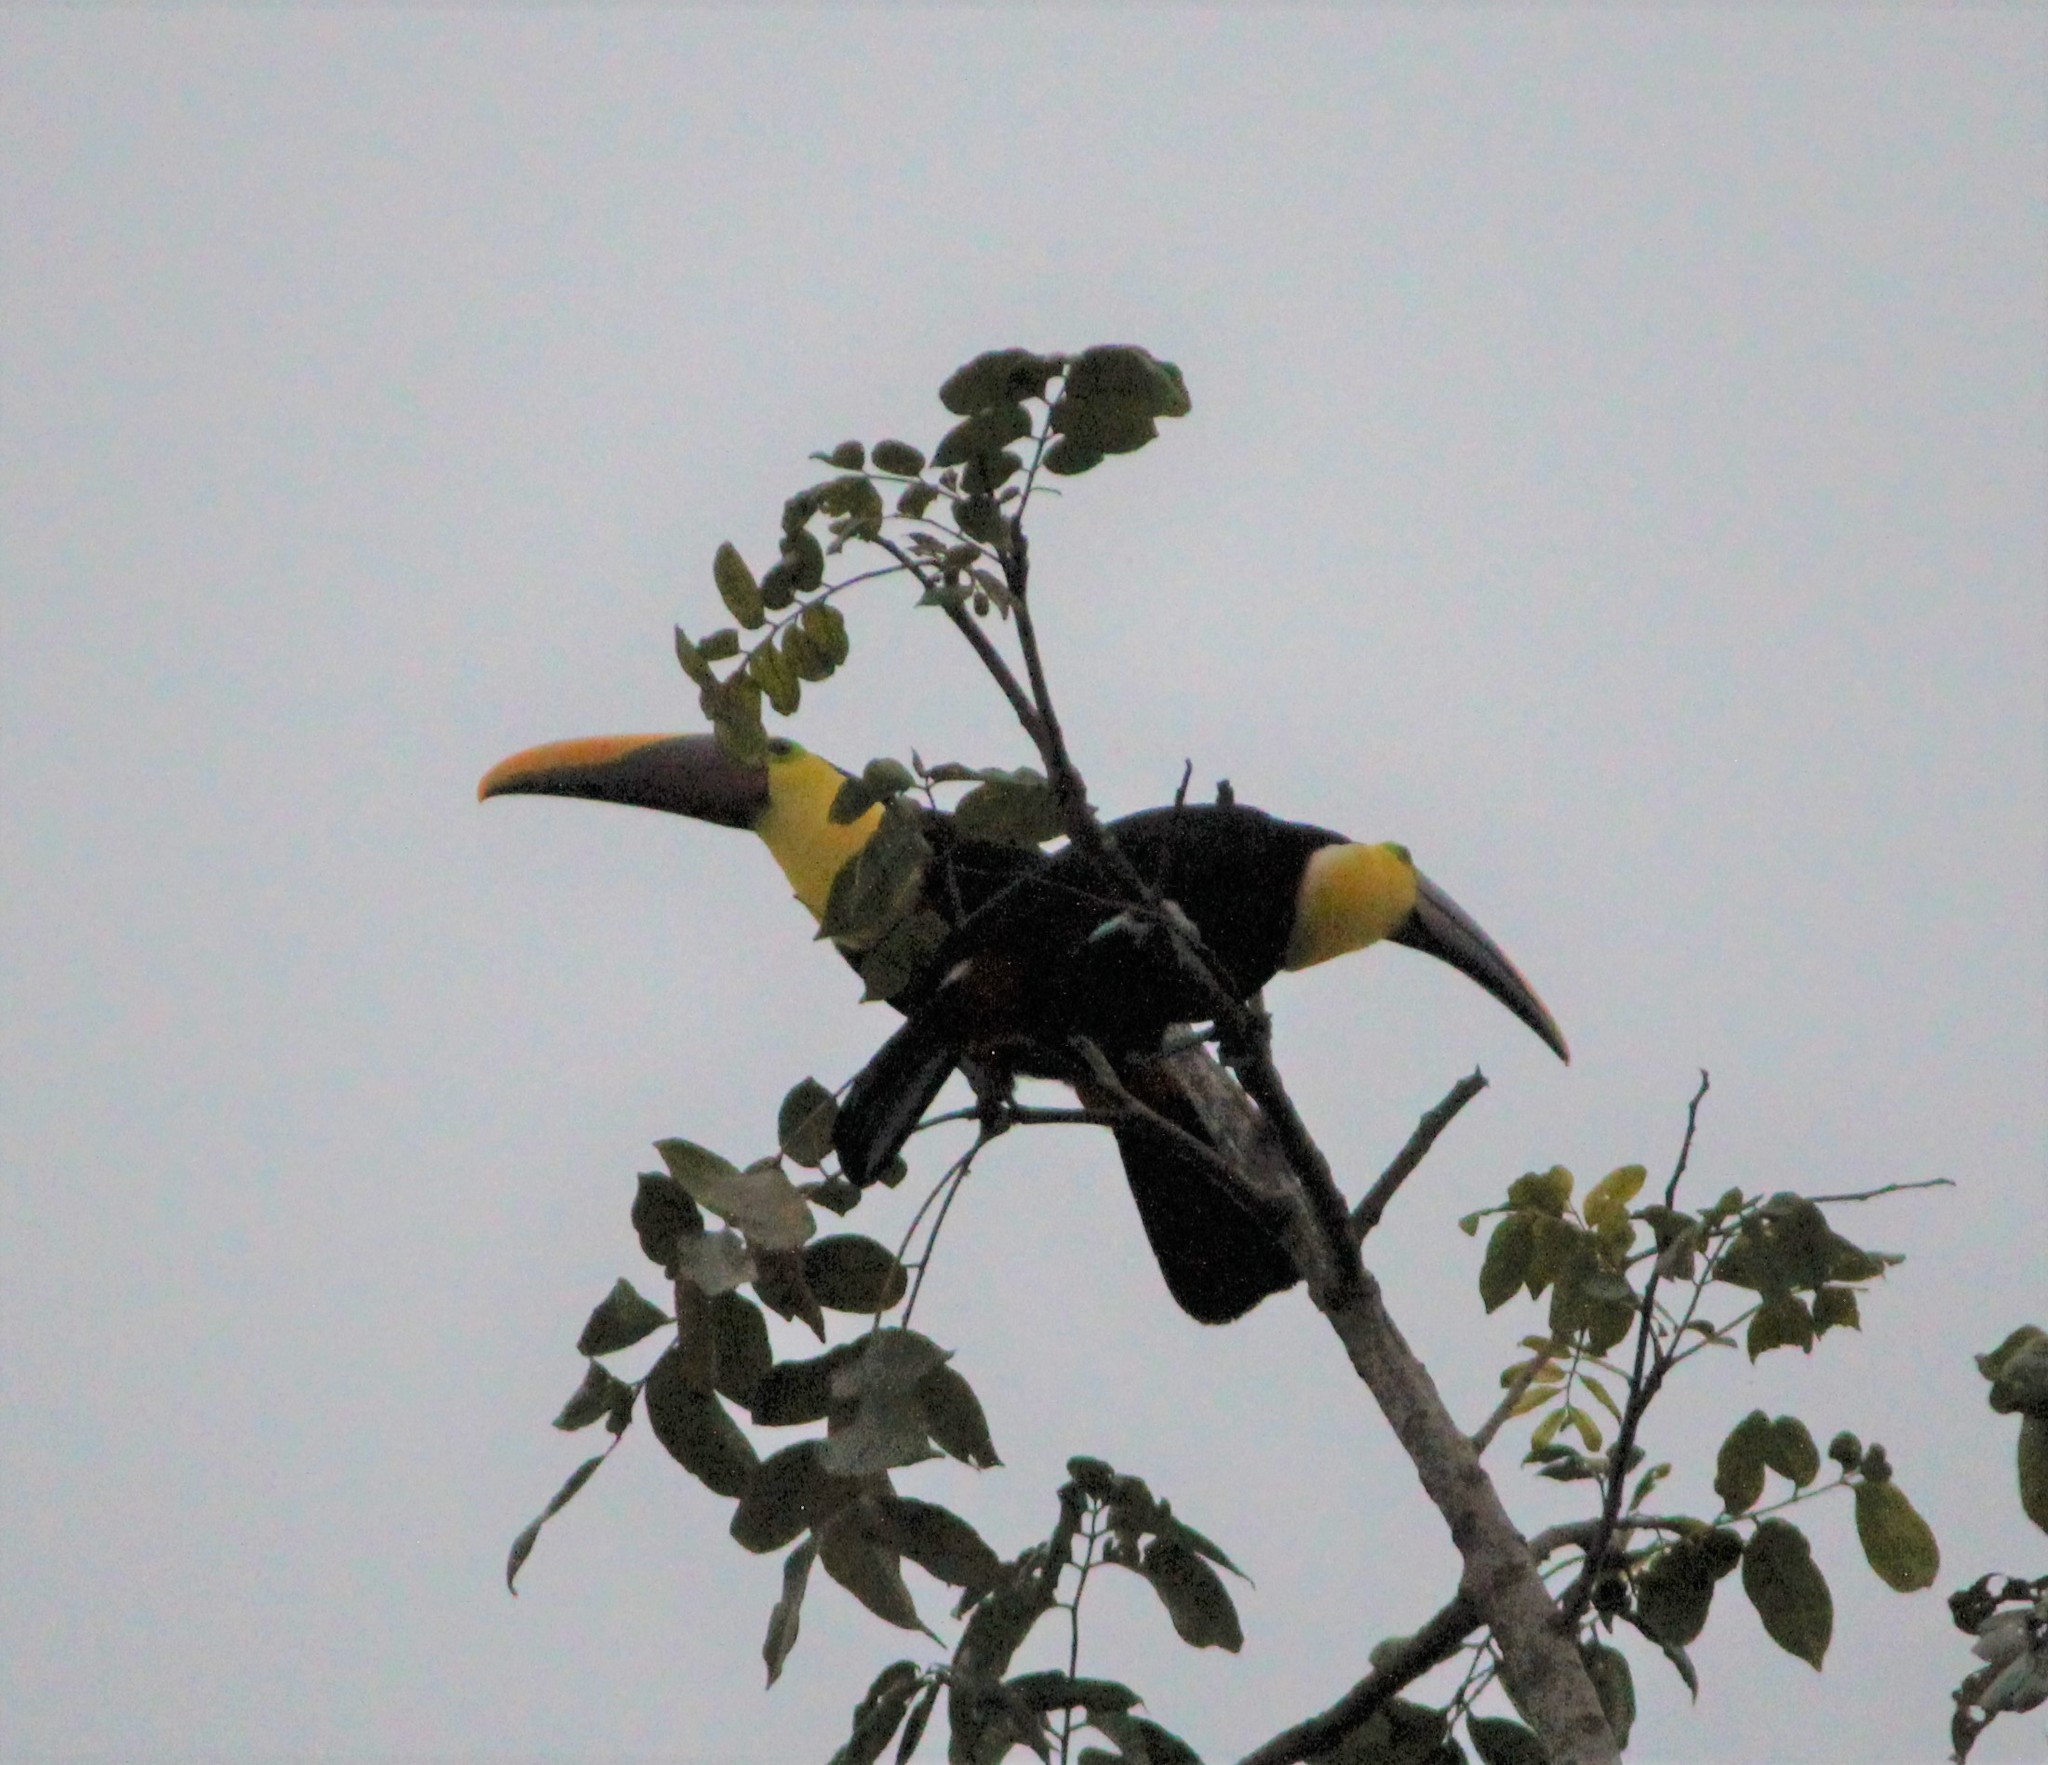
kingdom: Animalia
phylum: Chordata
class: Aves
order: Piciformes
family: Ramphastidae
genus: Ramphastos
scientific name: Ramphastos ambiguus
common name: Yellow-throated toucan
